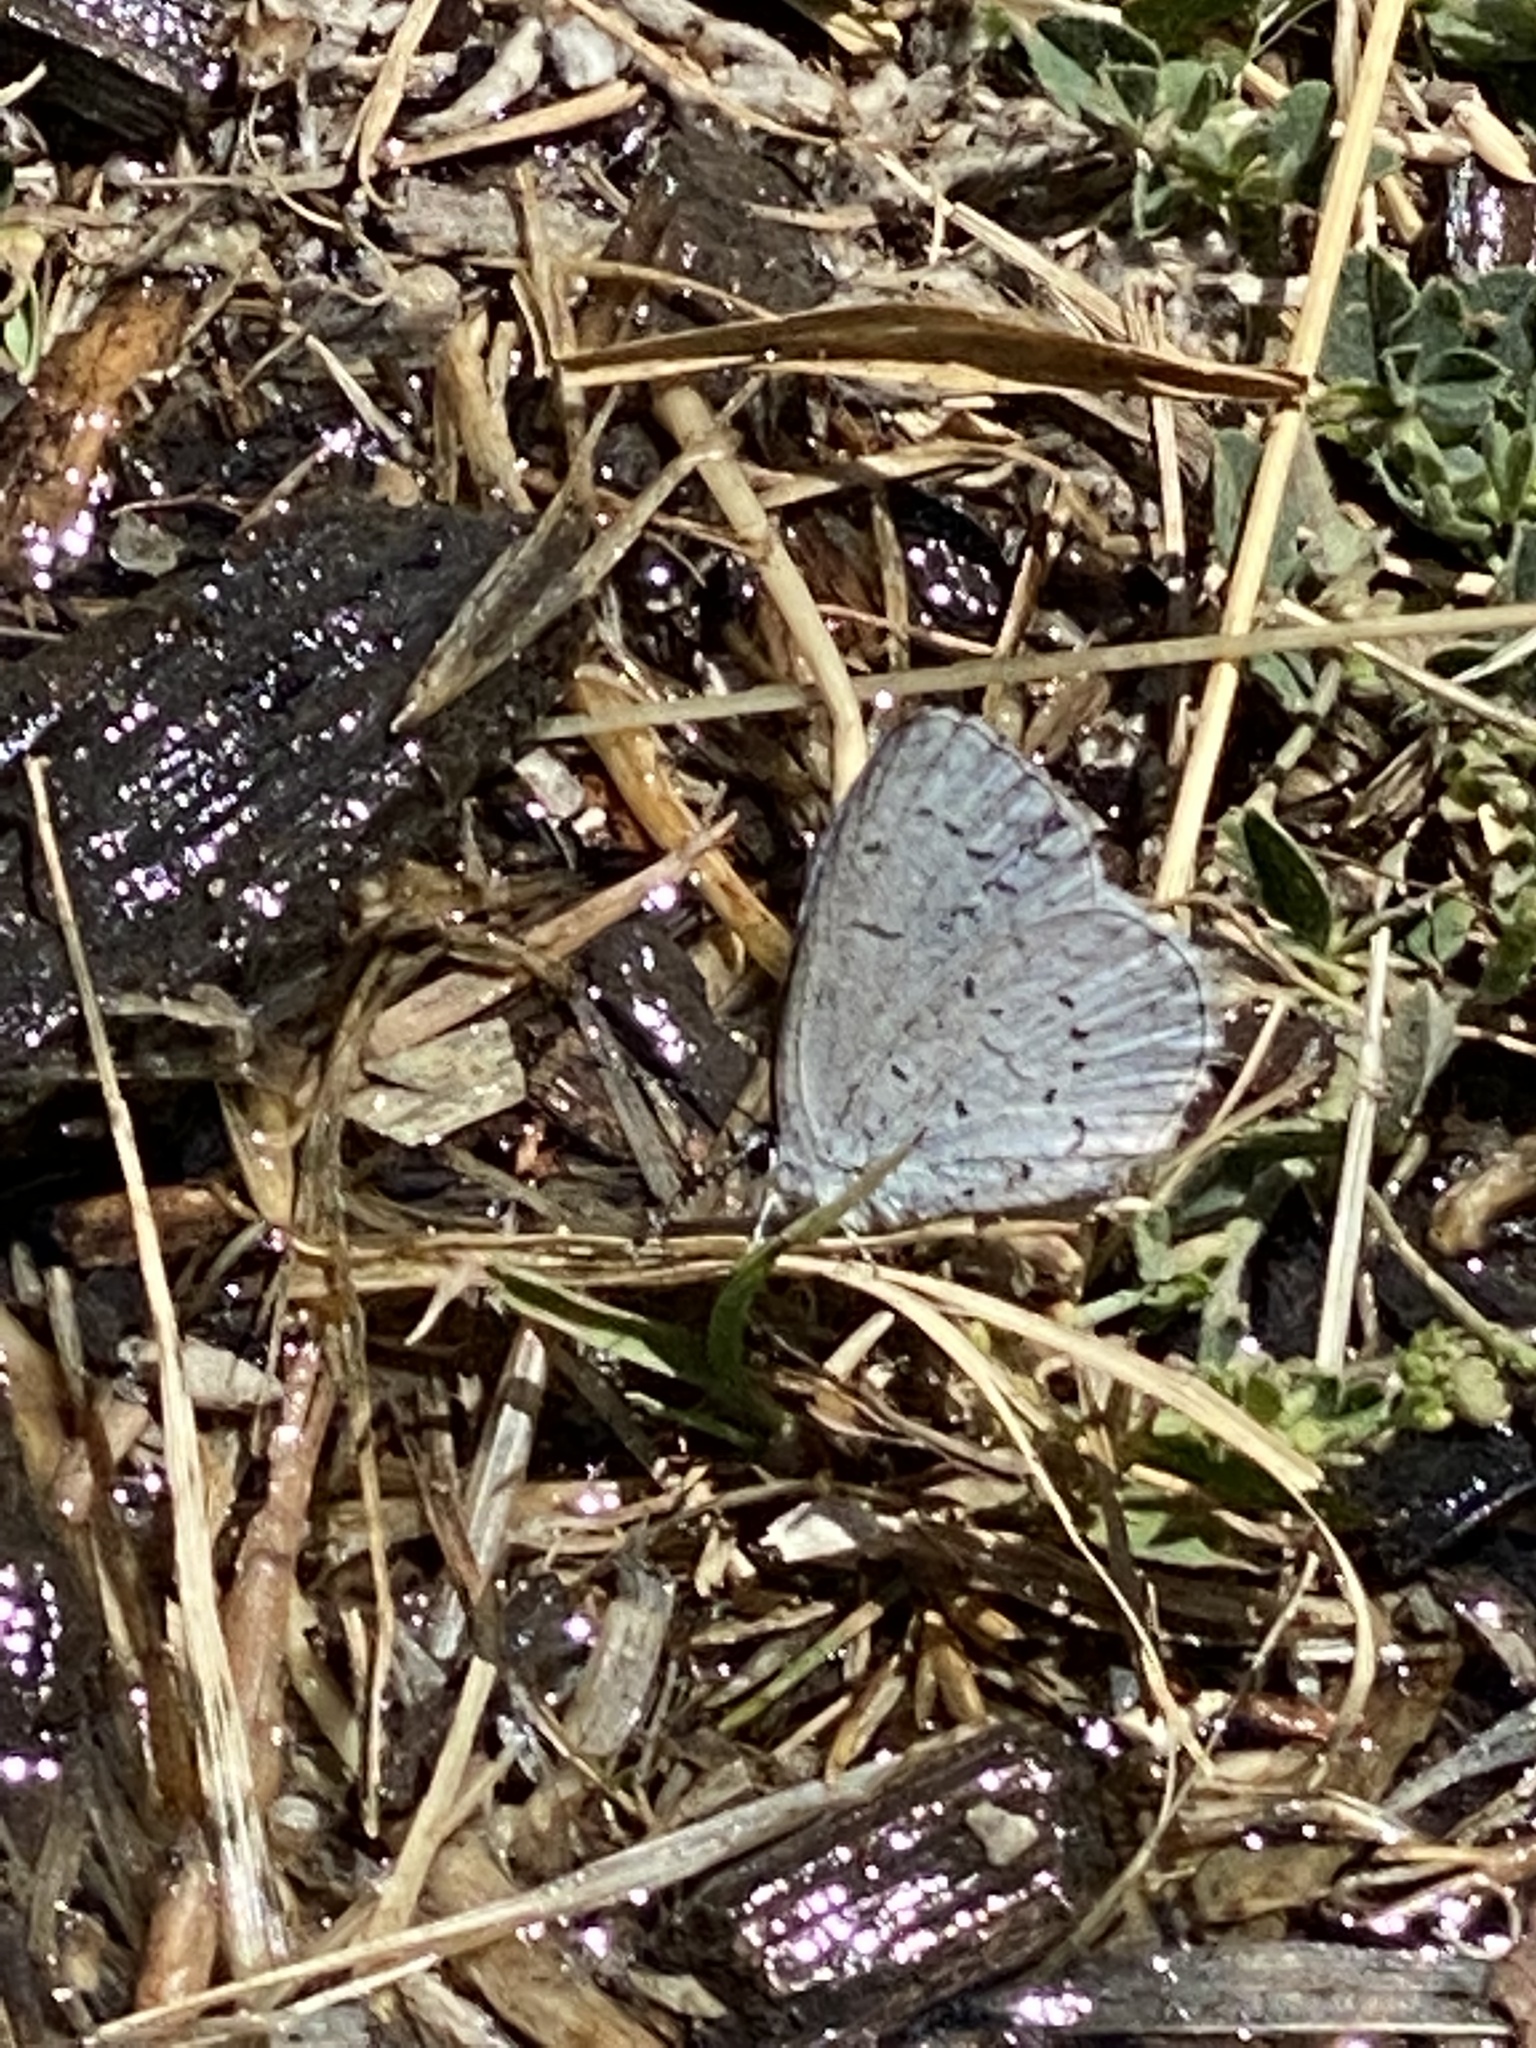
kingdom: Animalia
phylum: Arthropoda
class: Insecta
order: Lepidoptera
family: Lycaenidae
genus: Celastrina
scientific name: Celastrina ladon
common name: Spring azure
